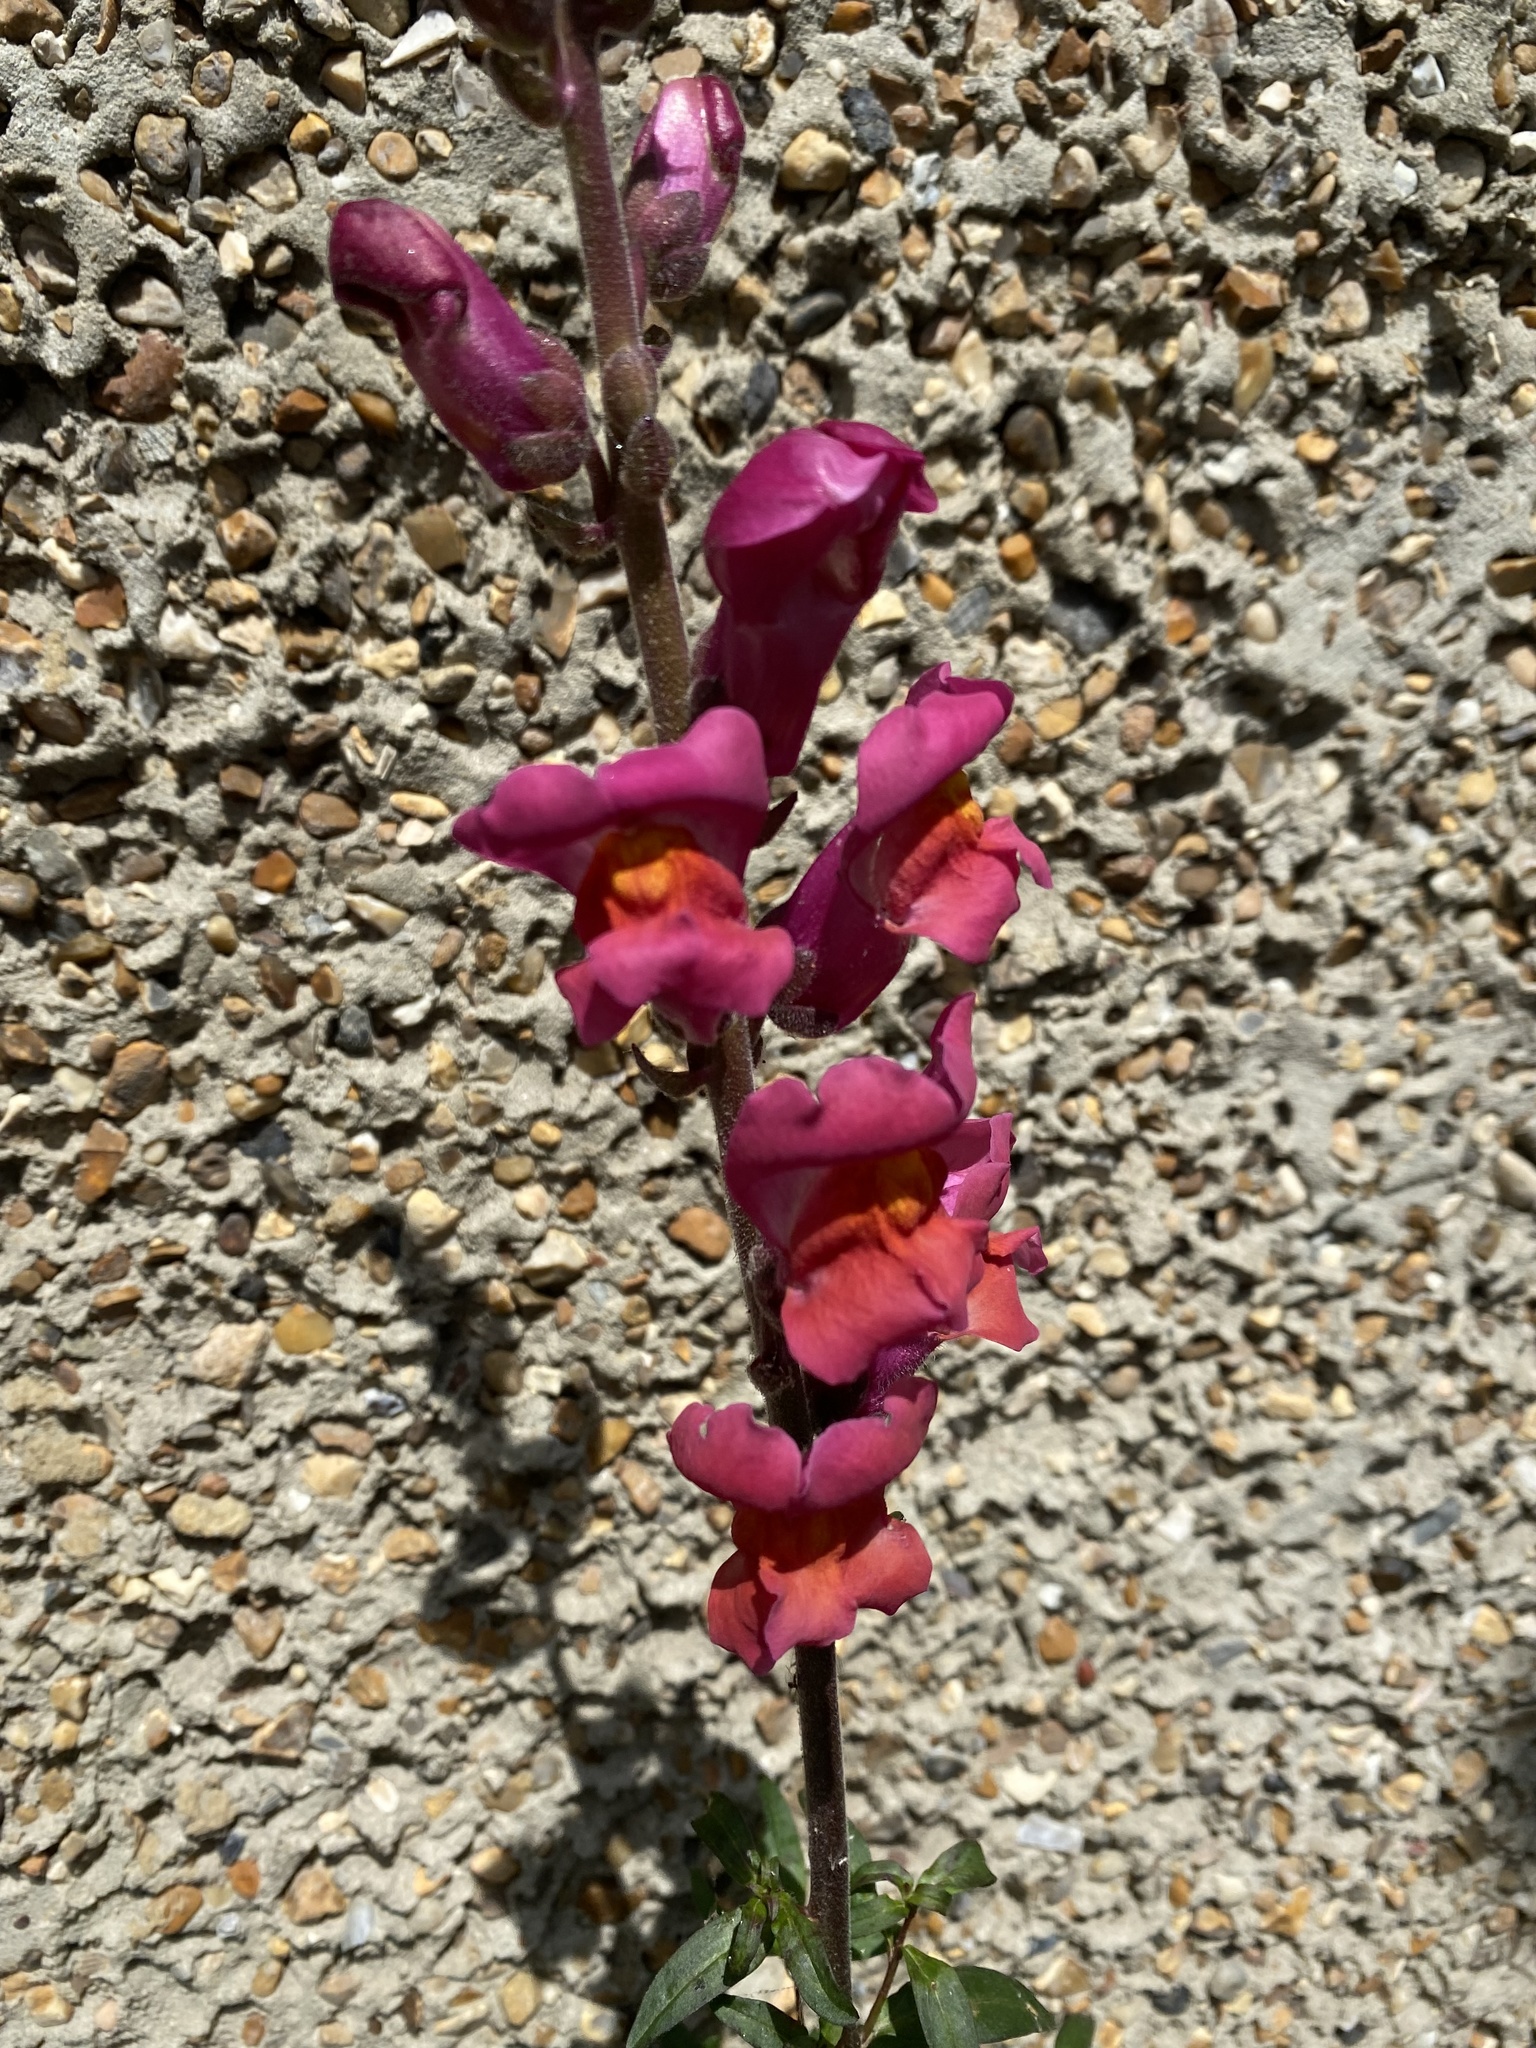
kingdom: Plantae
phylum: Tracheophyta
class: Magnoliopsida
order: Lamiales
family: Plantaginaceae
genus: Antirrhinum
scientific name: Antirrhinum majus
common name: Snapdragon
